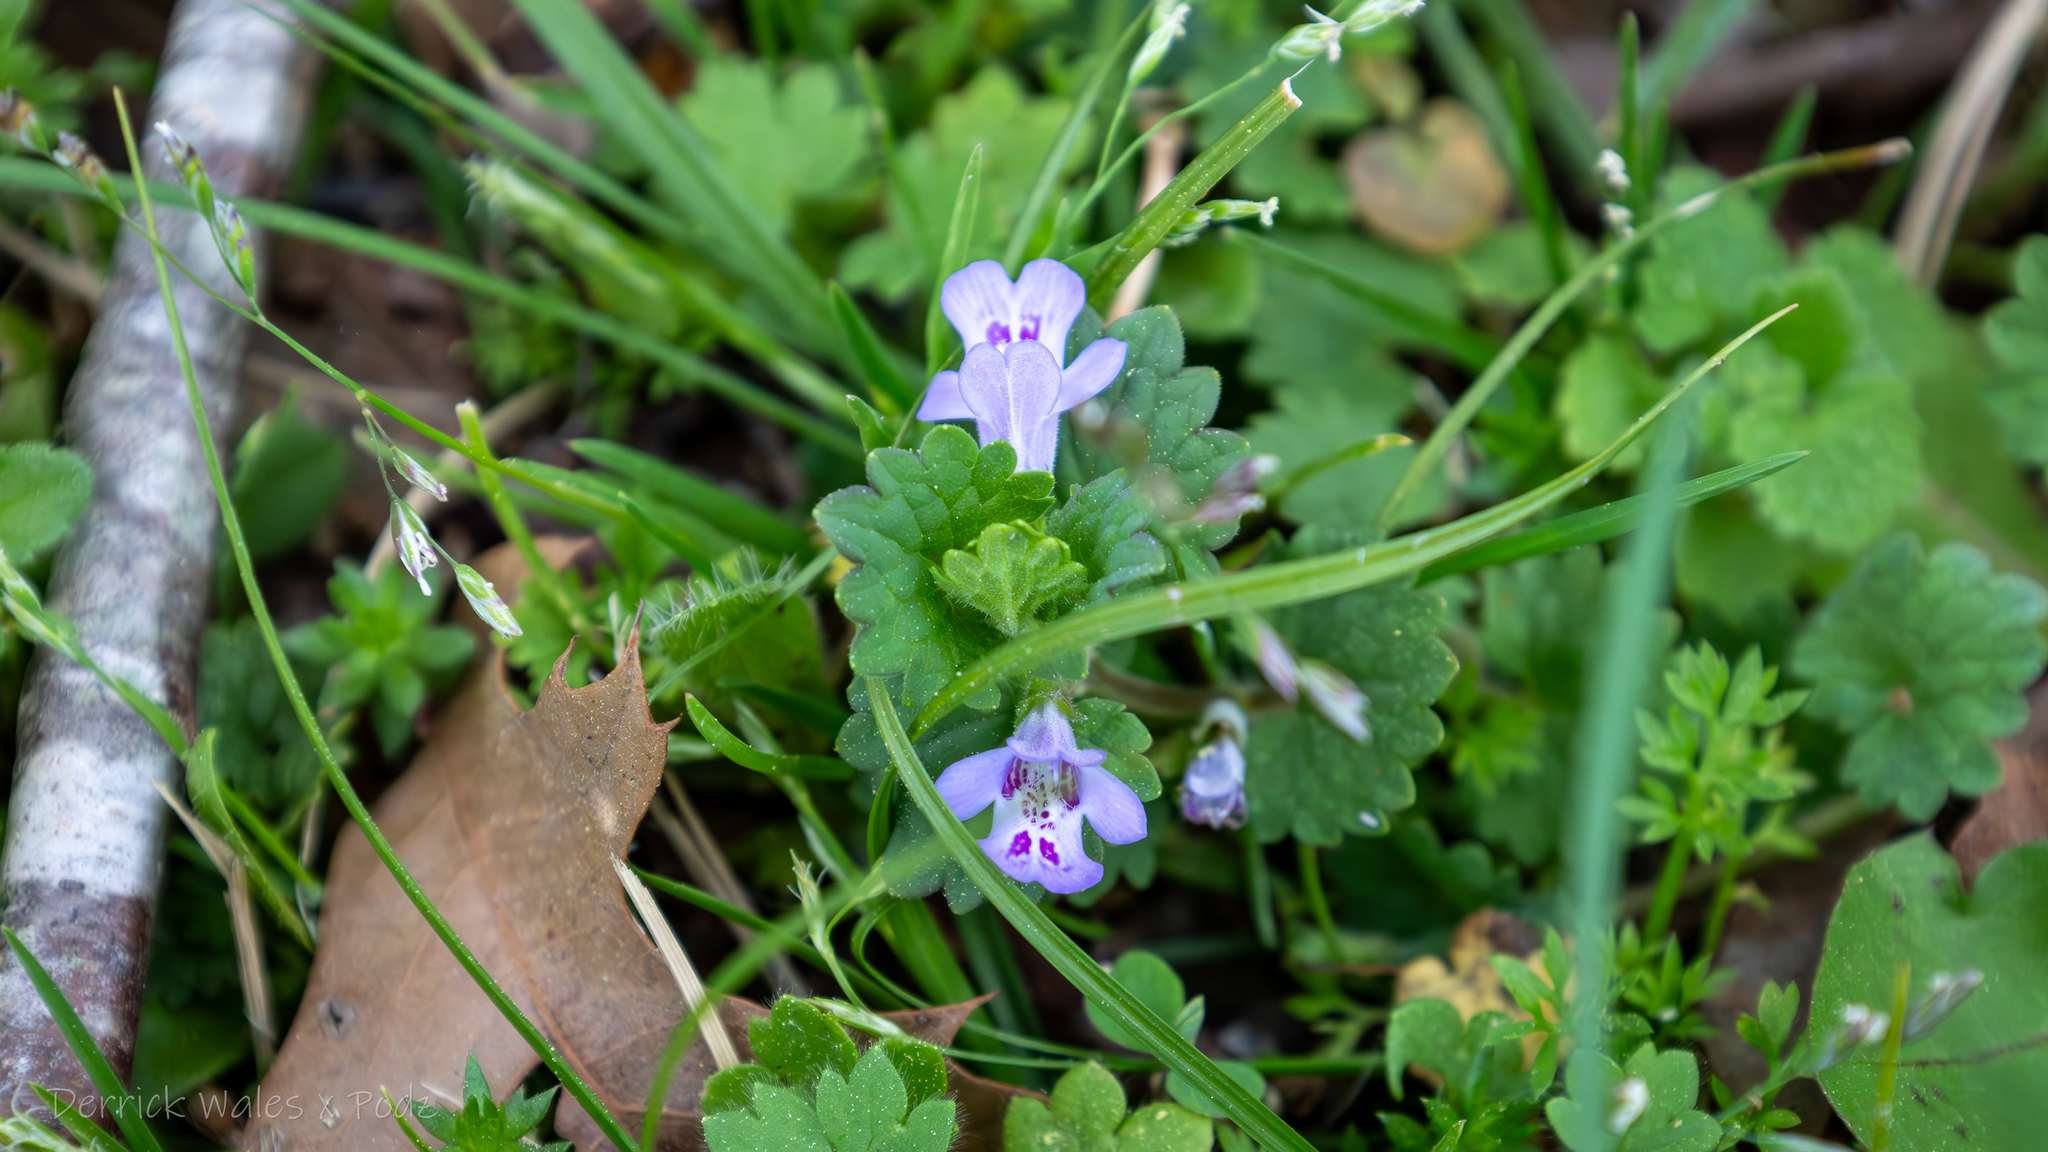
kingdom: Plantae
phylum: Tracheophyta
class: Magnoliopsida
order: Lamiales
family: Lamiaceae
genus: Glechoma
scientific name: Glechoma hederacea
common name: Ground ivy
